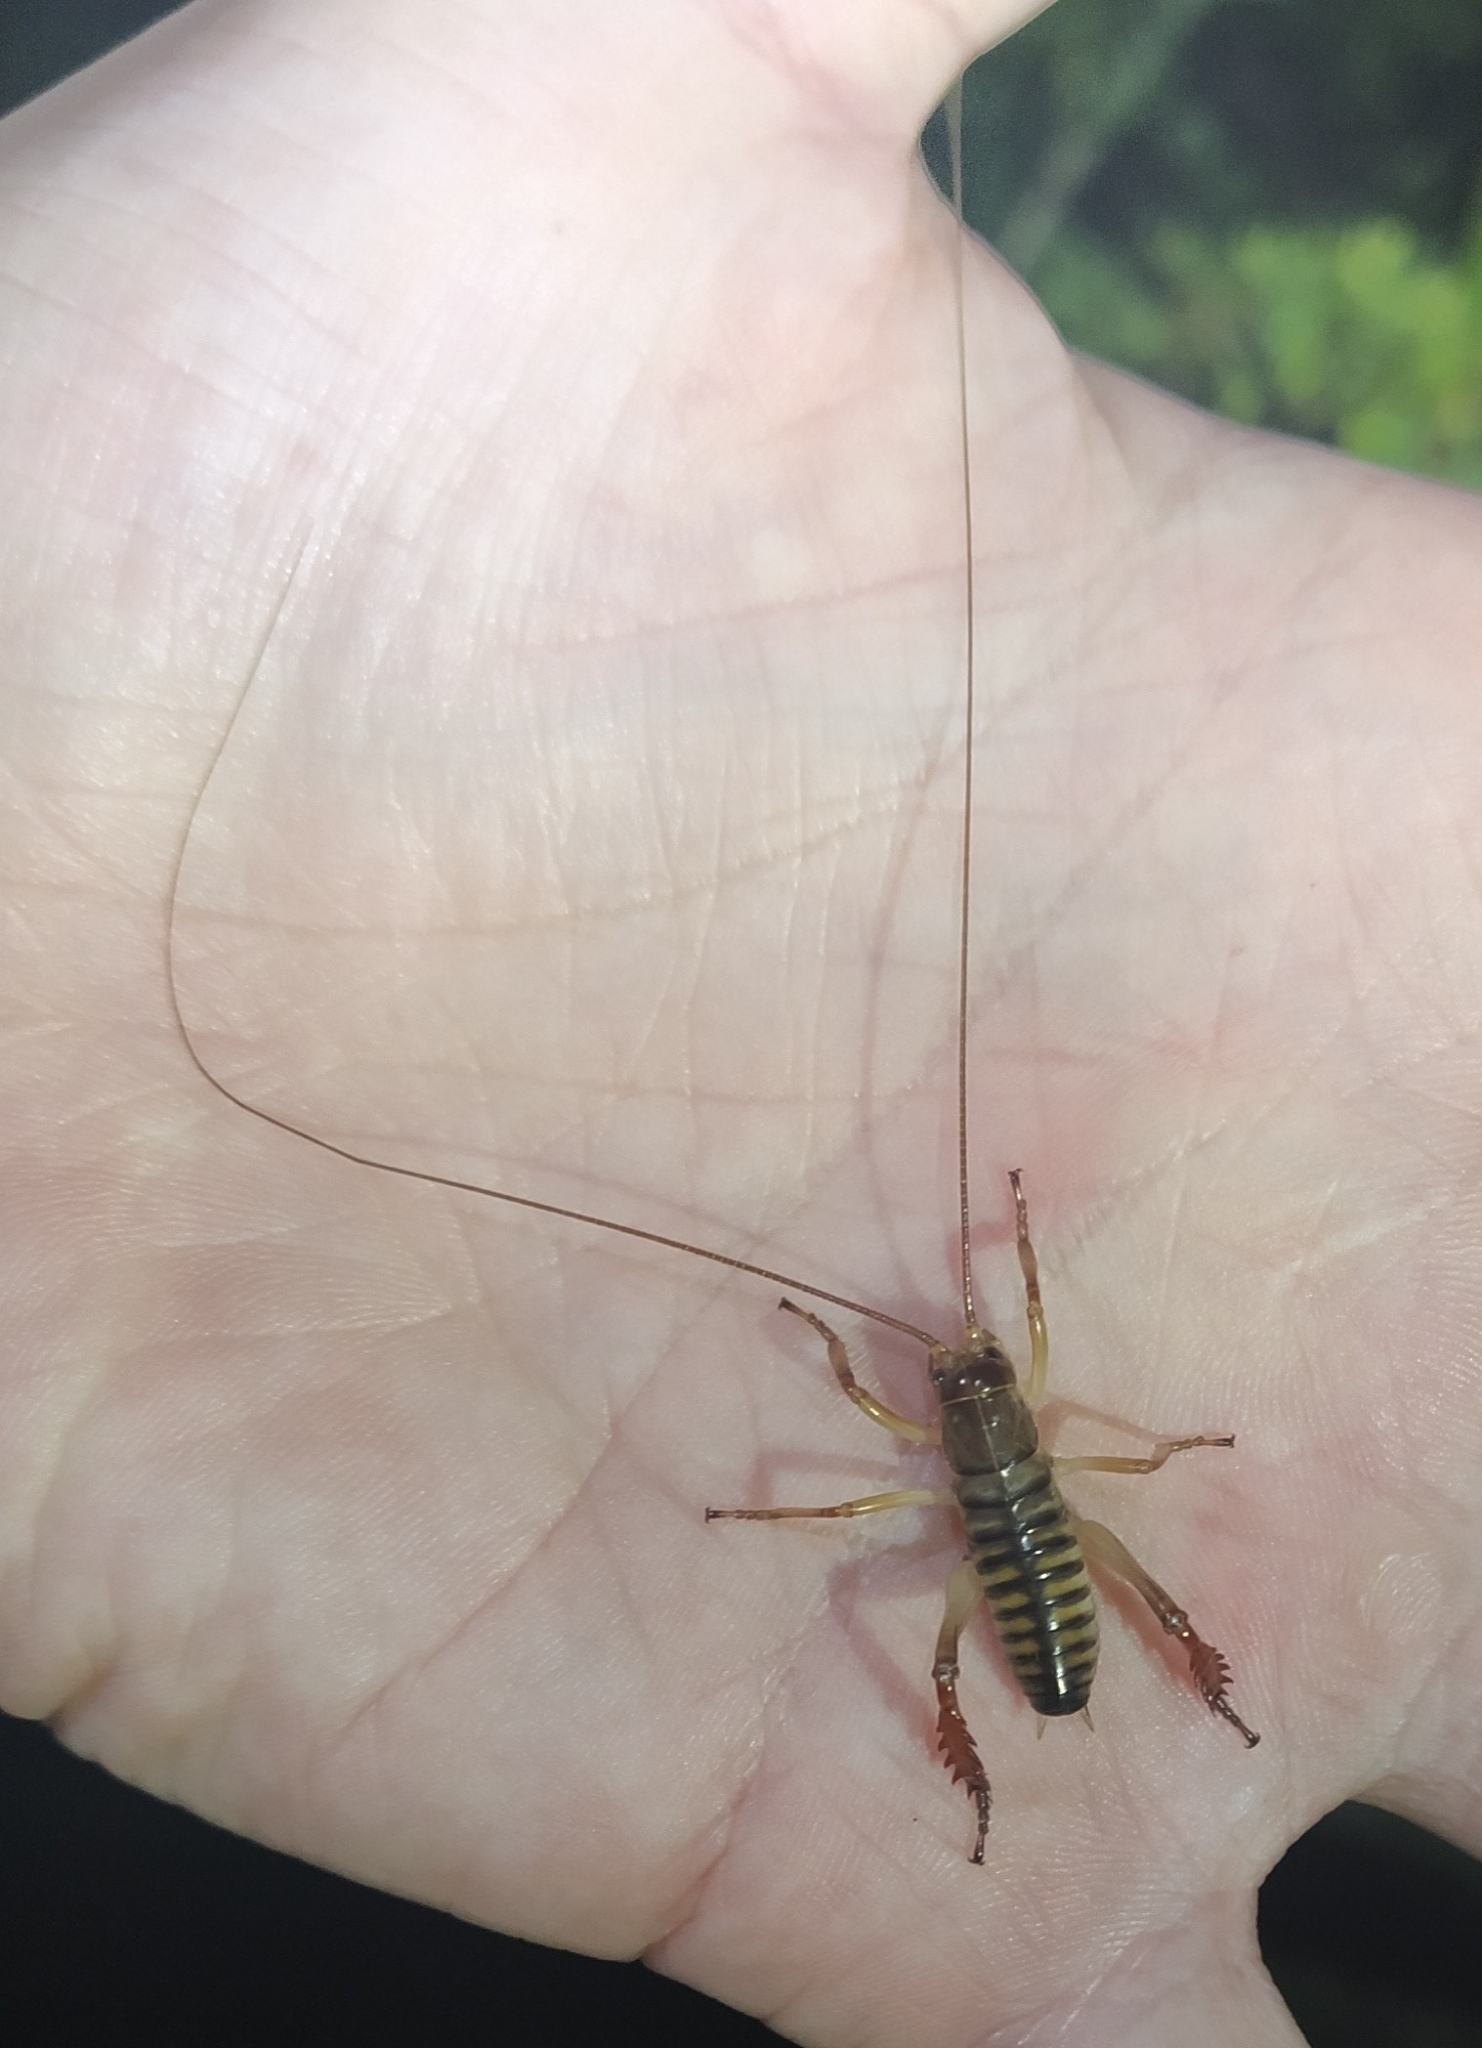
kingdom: Animalia
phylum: Arthropoda
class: Insecta
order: Orthoptera
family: Anostostomatidae
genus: Hemideina
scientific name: Hemideina crassidens
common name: Wellington tree weta
